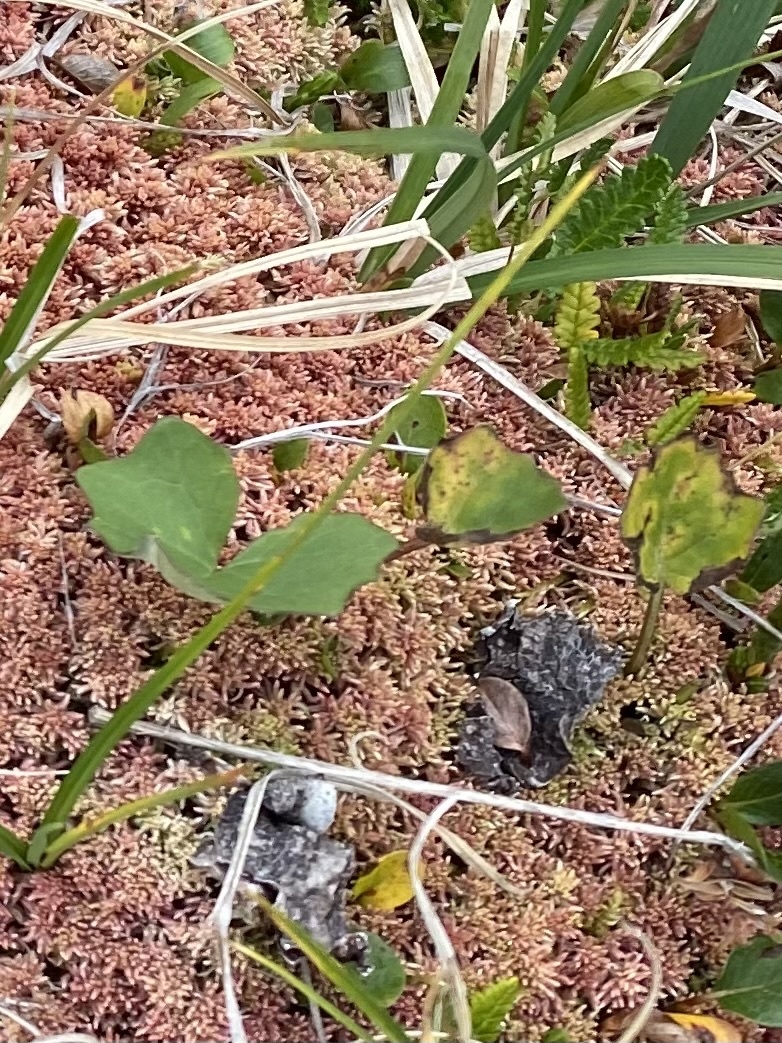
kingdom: Plantae
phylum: Tracheophyta
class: Magnoliopsida
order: Asterales
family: Asteraceae
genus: Petasites
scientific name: Petasites frigidus
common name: Arctic butterbur
